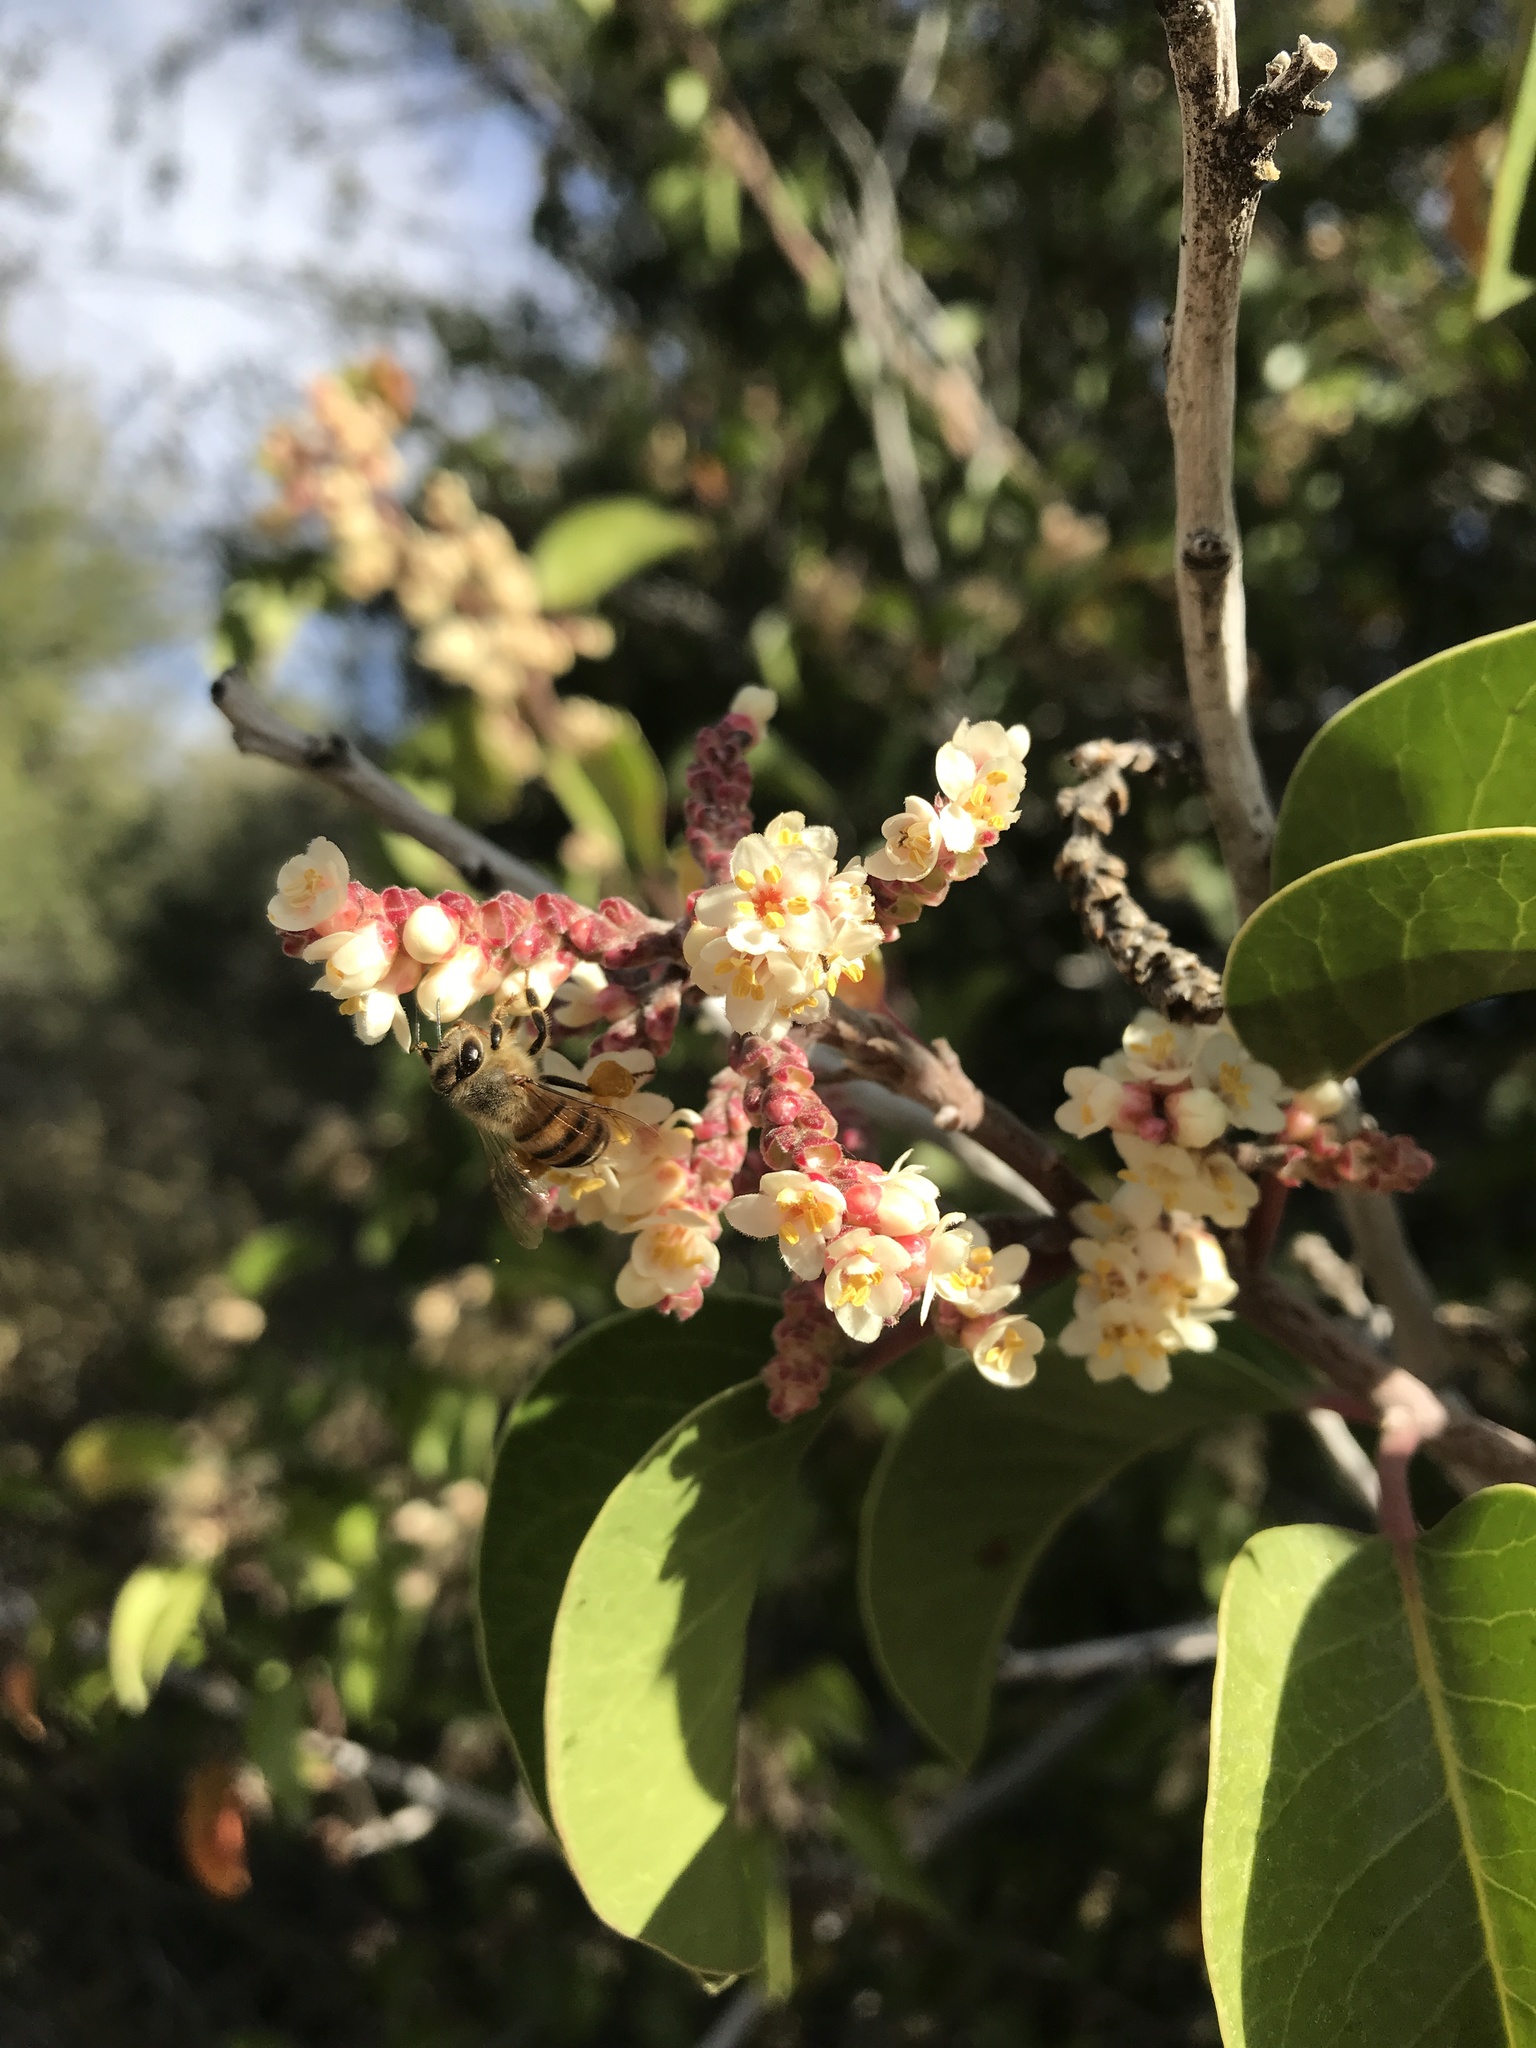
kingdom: Animalia
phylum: Arthropoda
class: Insecta
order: Hymenoptera
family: Apidae
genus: Apis
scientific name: Apis mellifera
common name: Honey bee
